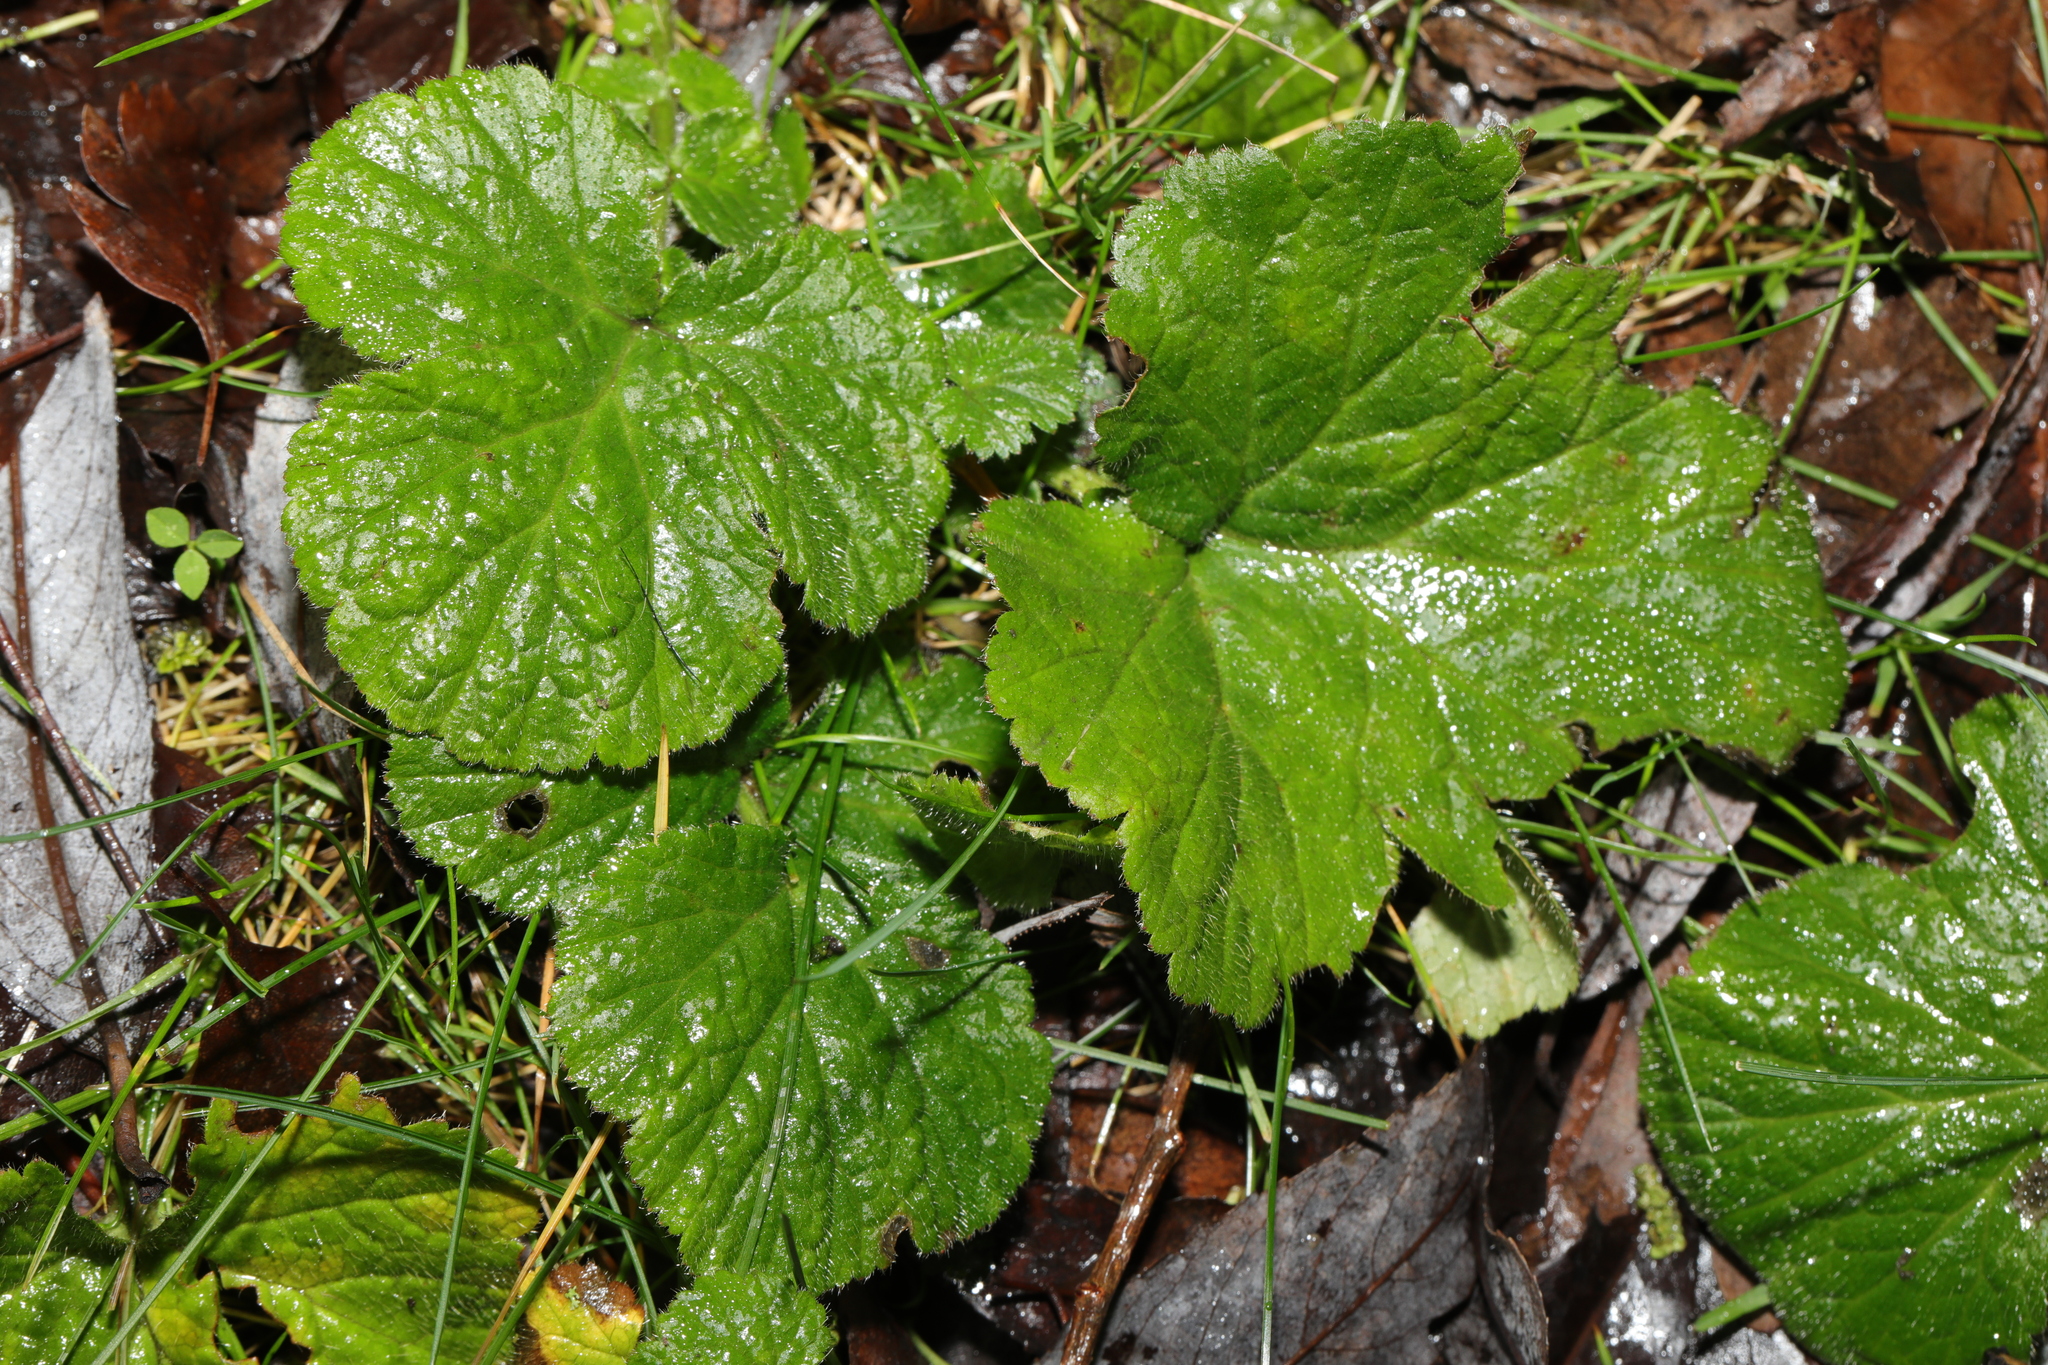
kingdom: Plantae
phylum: Tracheophyta
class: Magnoliopsida
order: Rosales
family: Rosaceae
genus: Geum
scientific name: Geum urbanum
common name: Wood avens
